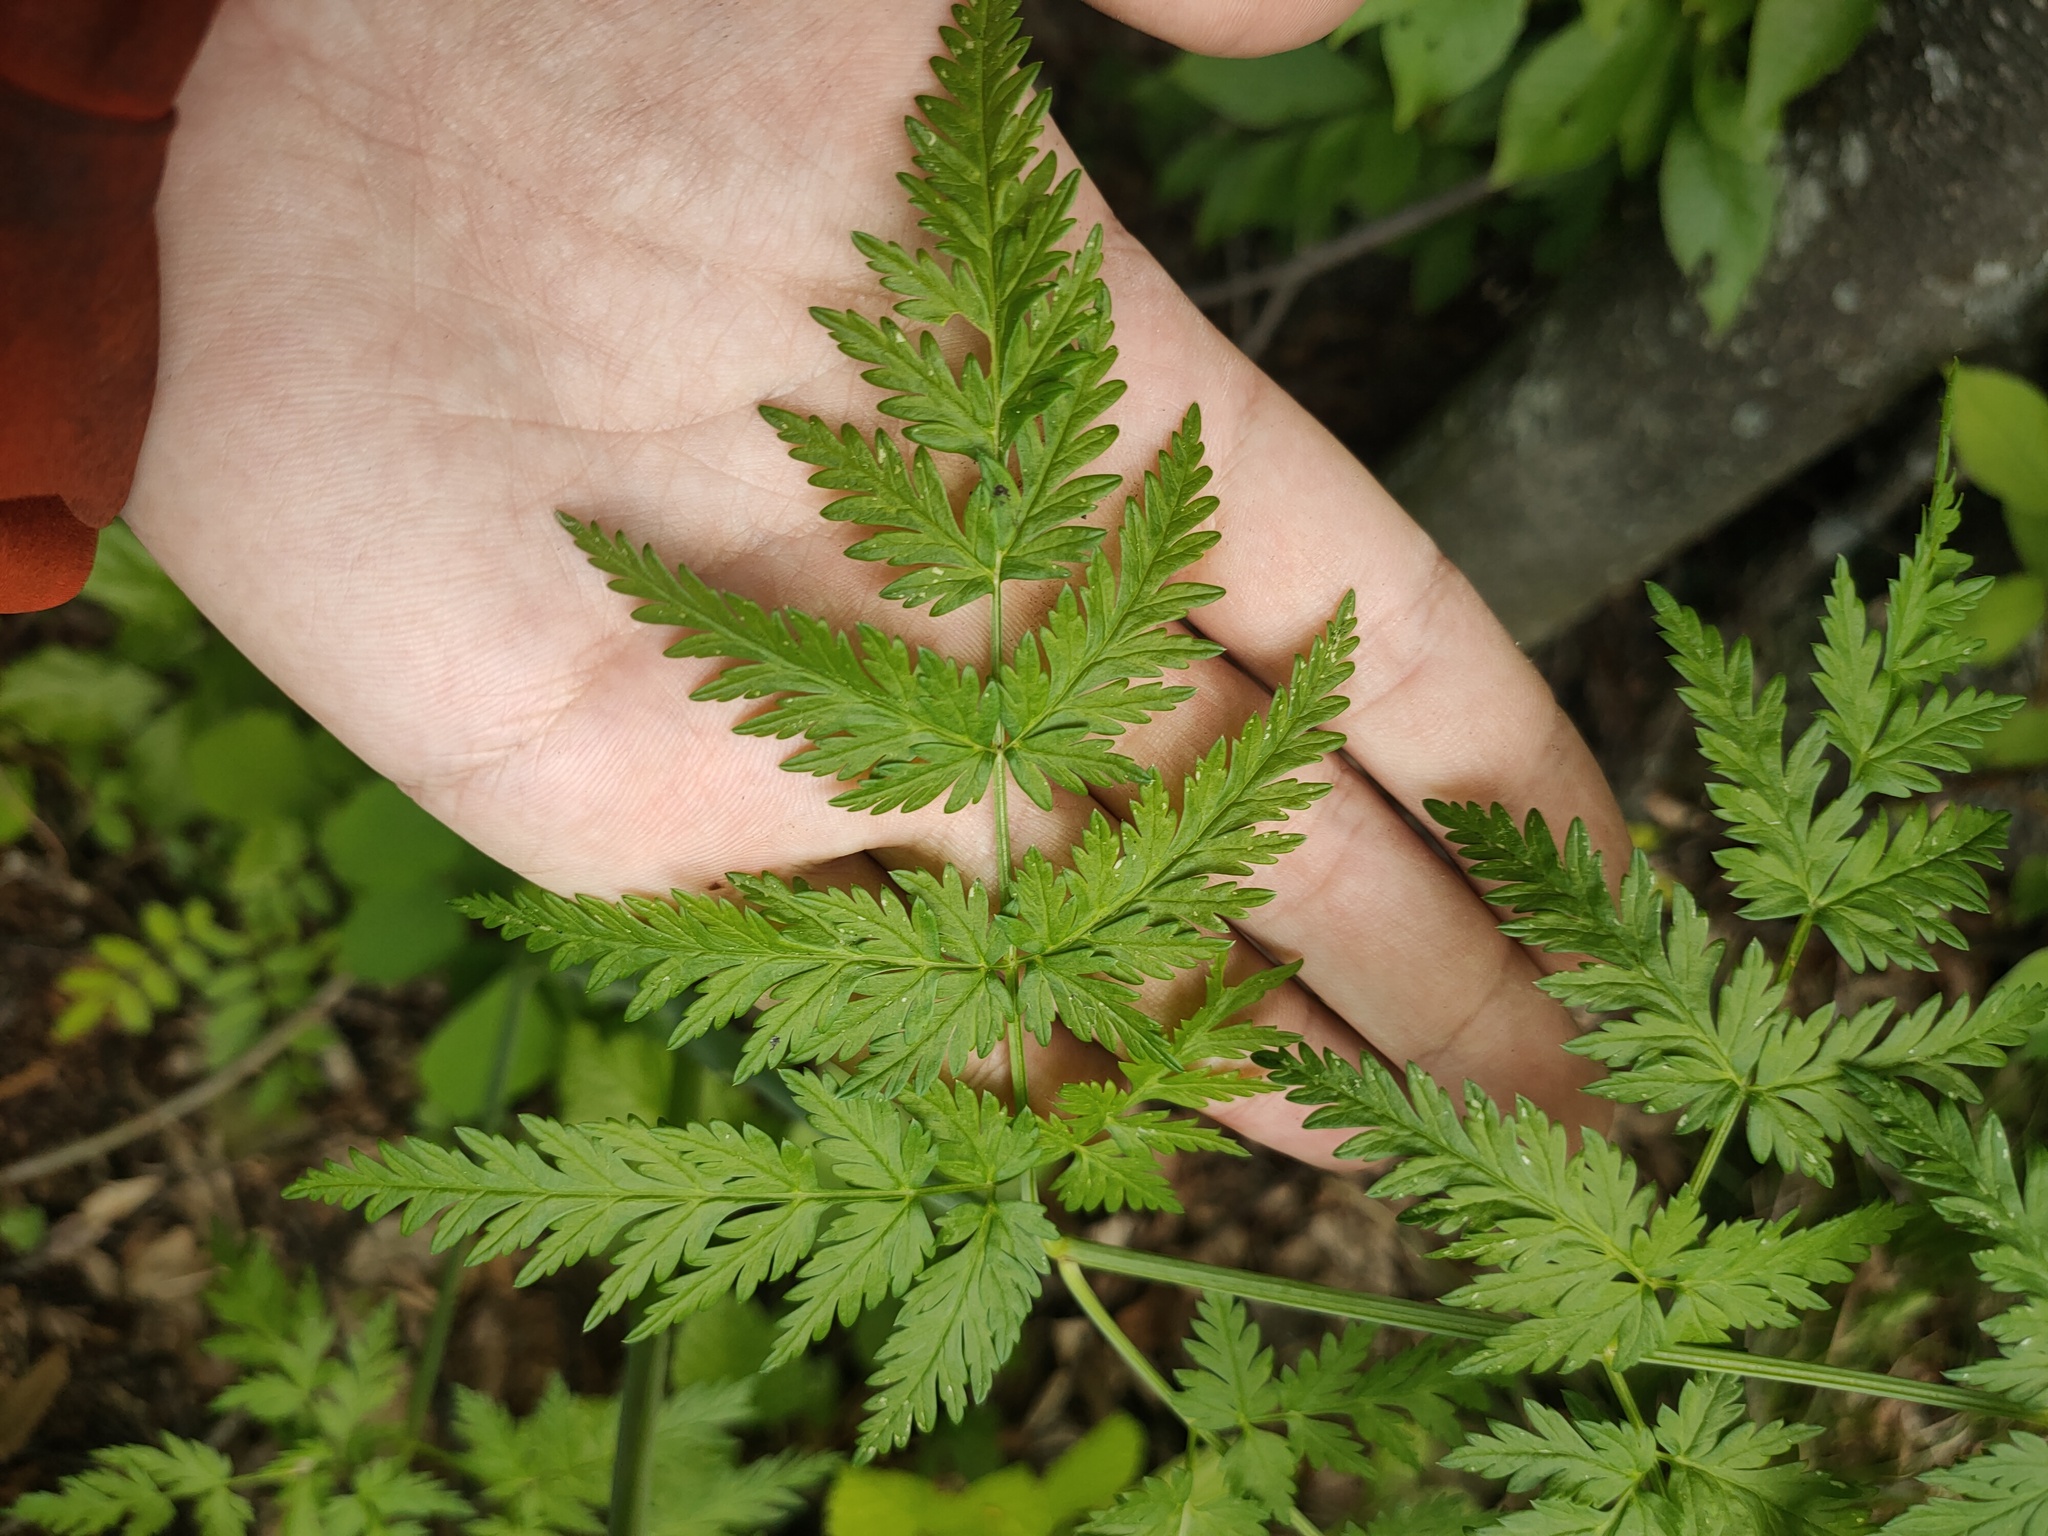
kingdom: Plantae
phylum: Tracheophyta
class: Magnoliopsida
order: Apiales
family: Apiaceae
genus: Anthriscus
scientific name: Anthriscus sylvestris
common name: Cow parsley
